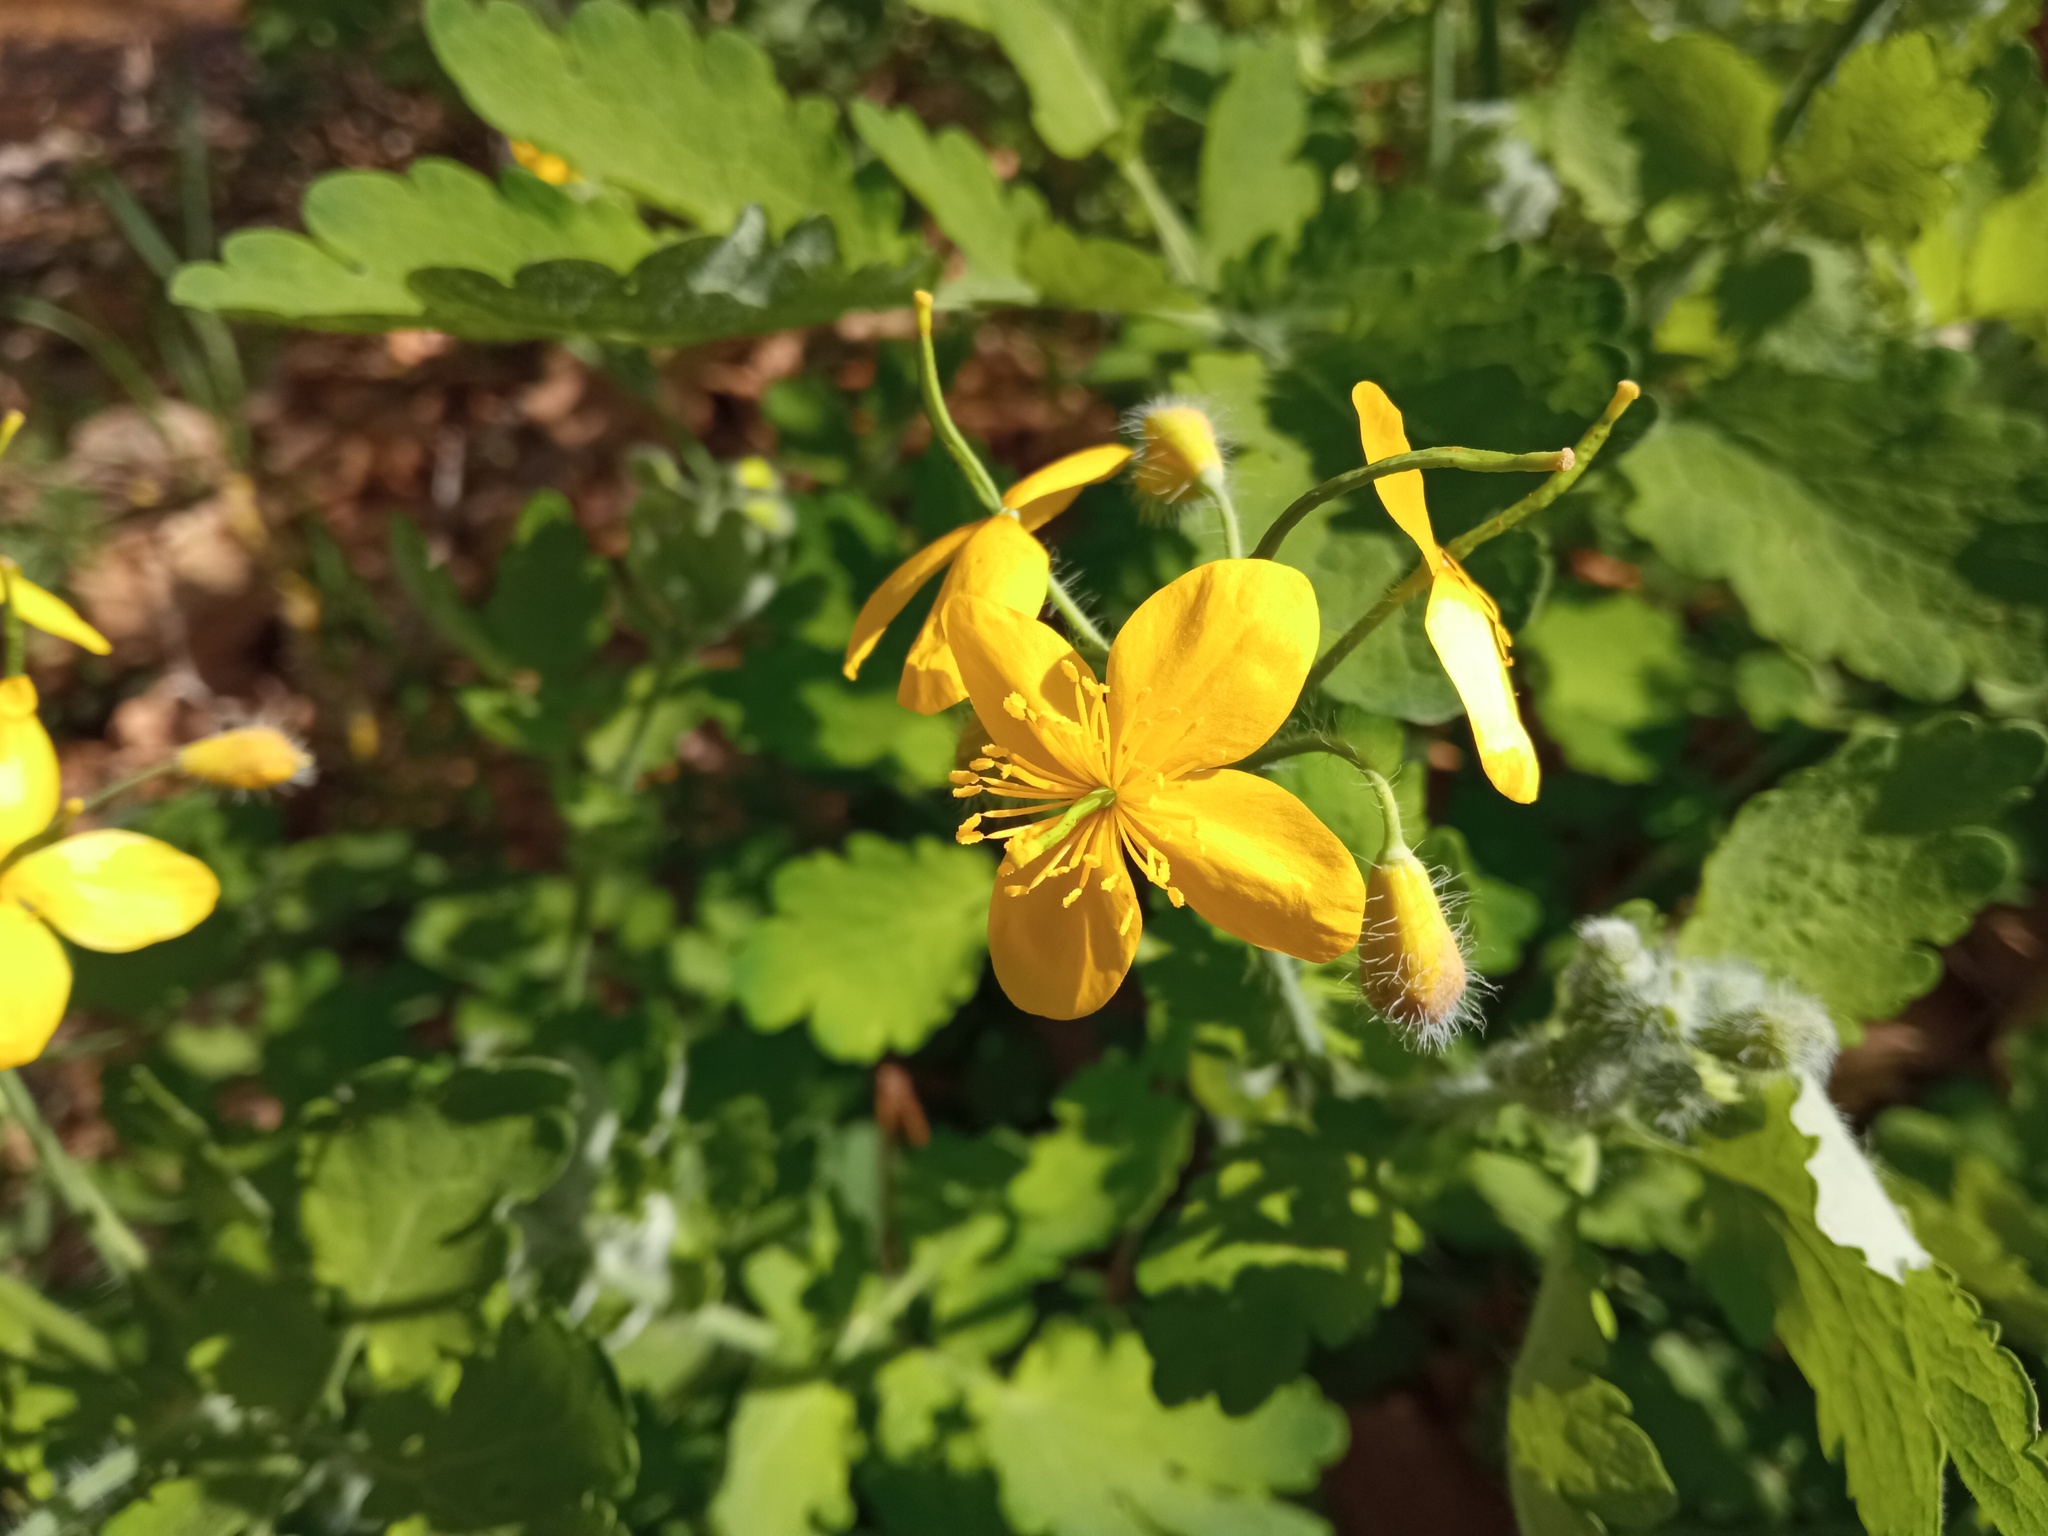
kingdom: Plantae
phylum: Tracheophyta
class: Magnoliopsida
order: Ranunculales
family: Papaveraceae
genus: Chelidonium
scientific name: Chelidonium majus
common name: Greater celandine
